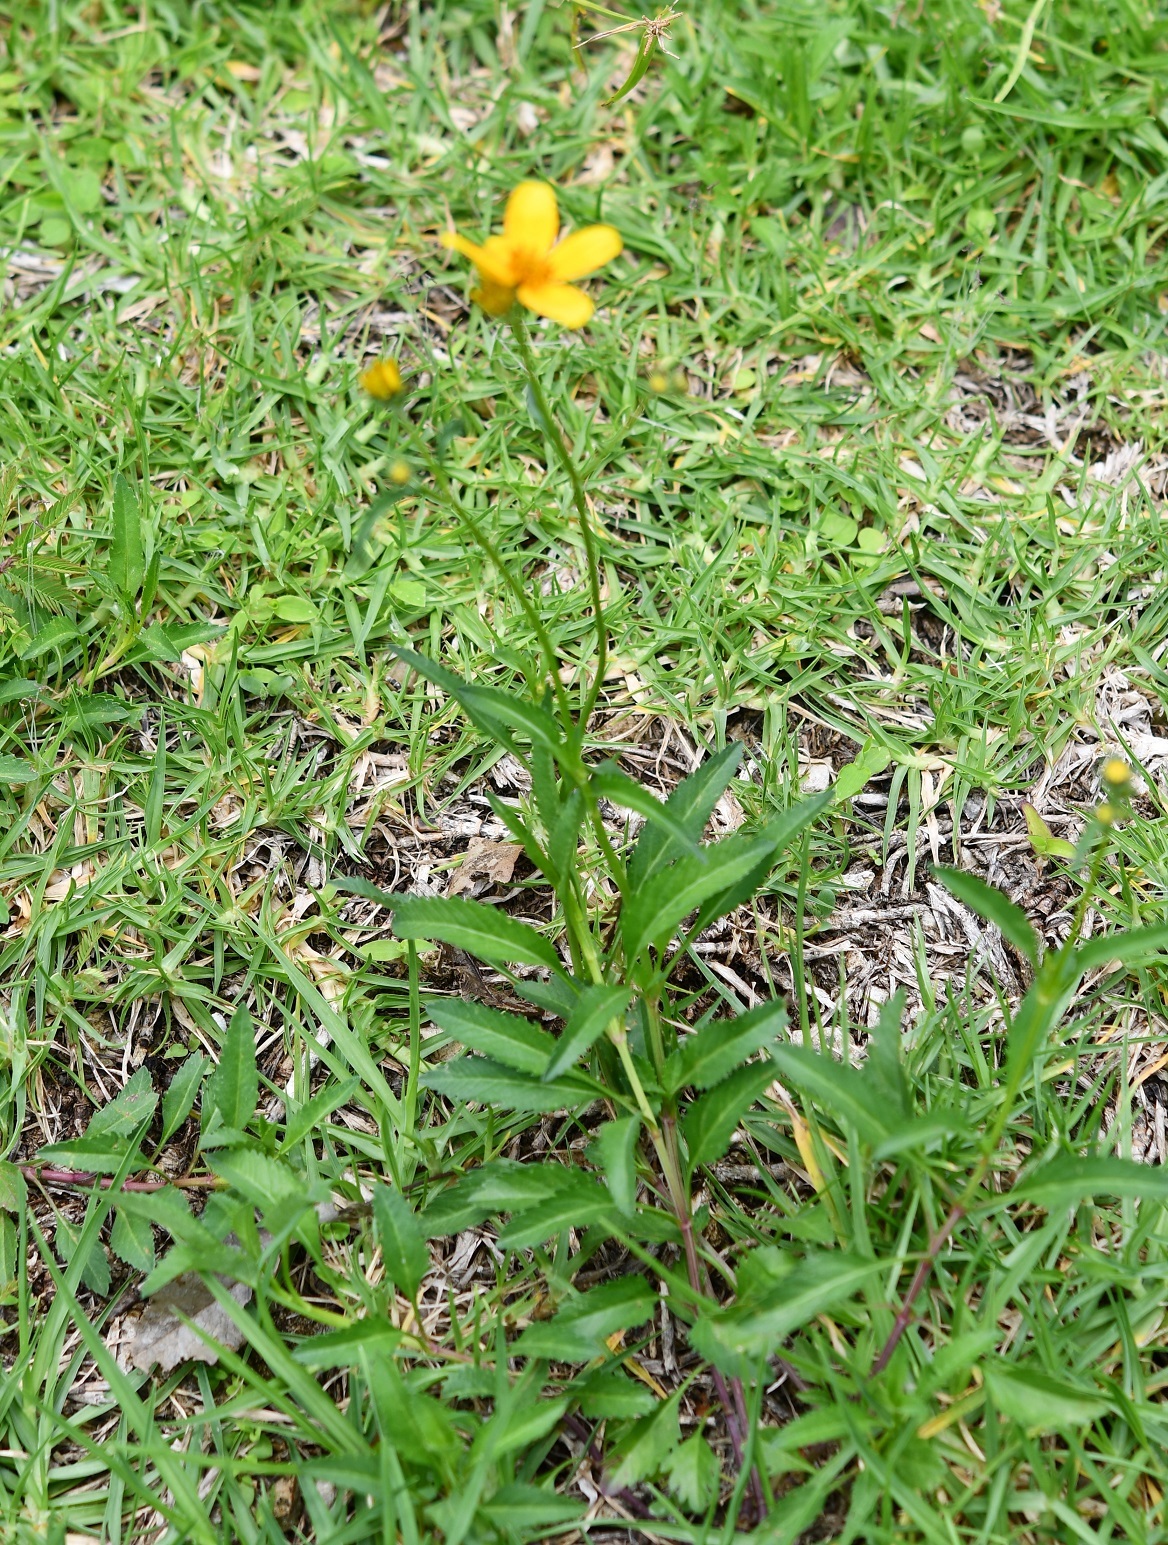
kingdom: Plantae
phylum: Tracheophyta
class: Magnoliopsida
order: Asterales
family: Asteraceae
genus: Bidens
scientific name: Bidens aurea
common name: Arizona beggar-ticks
